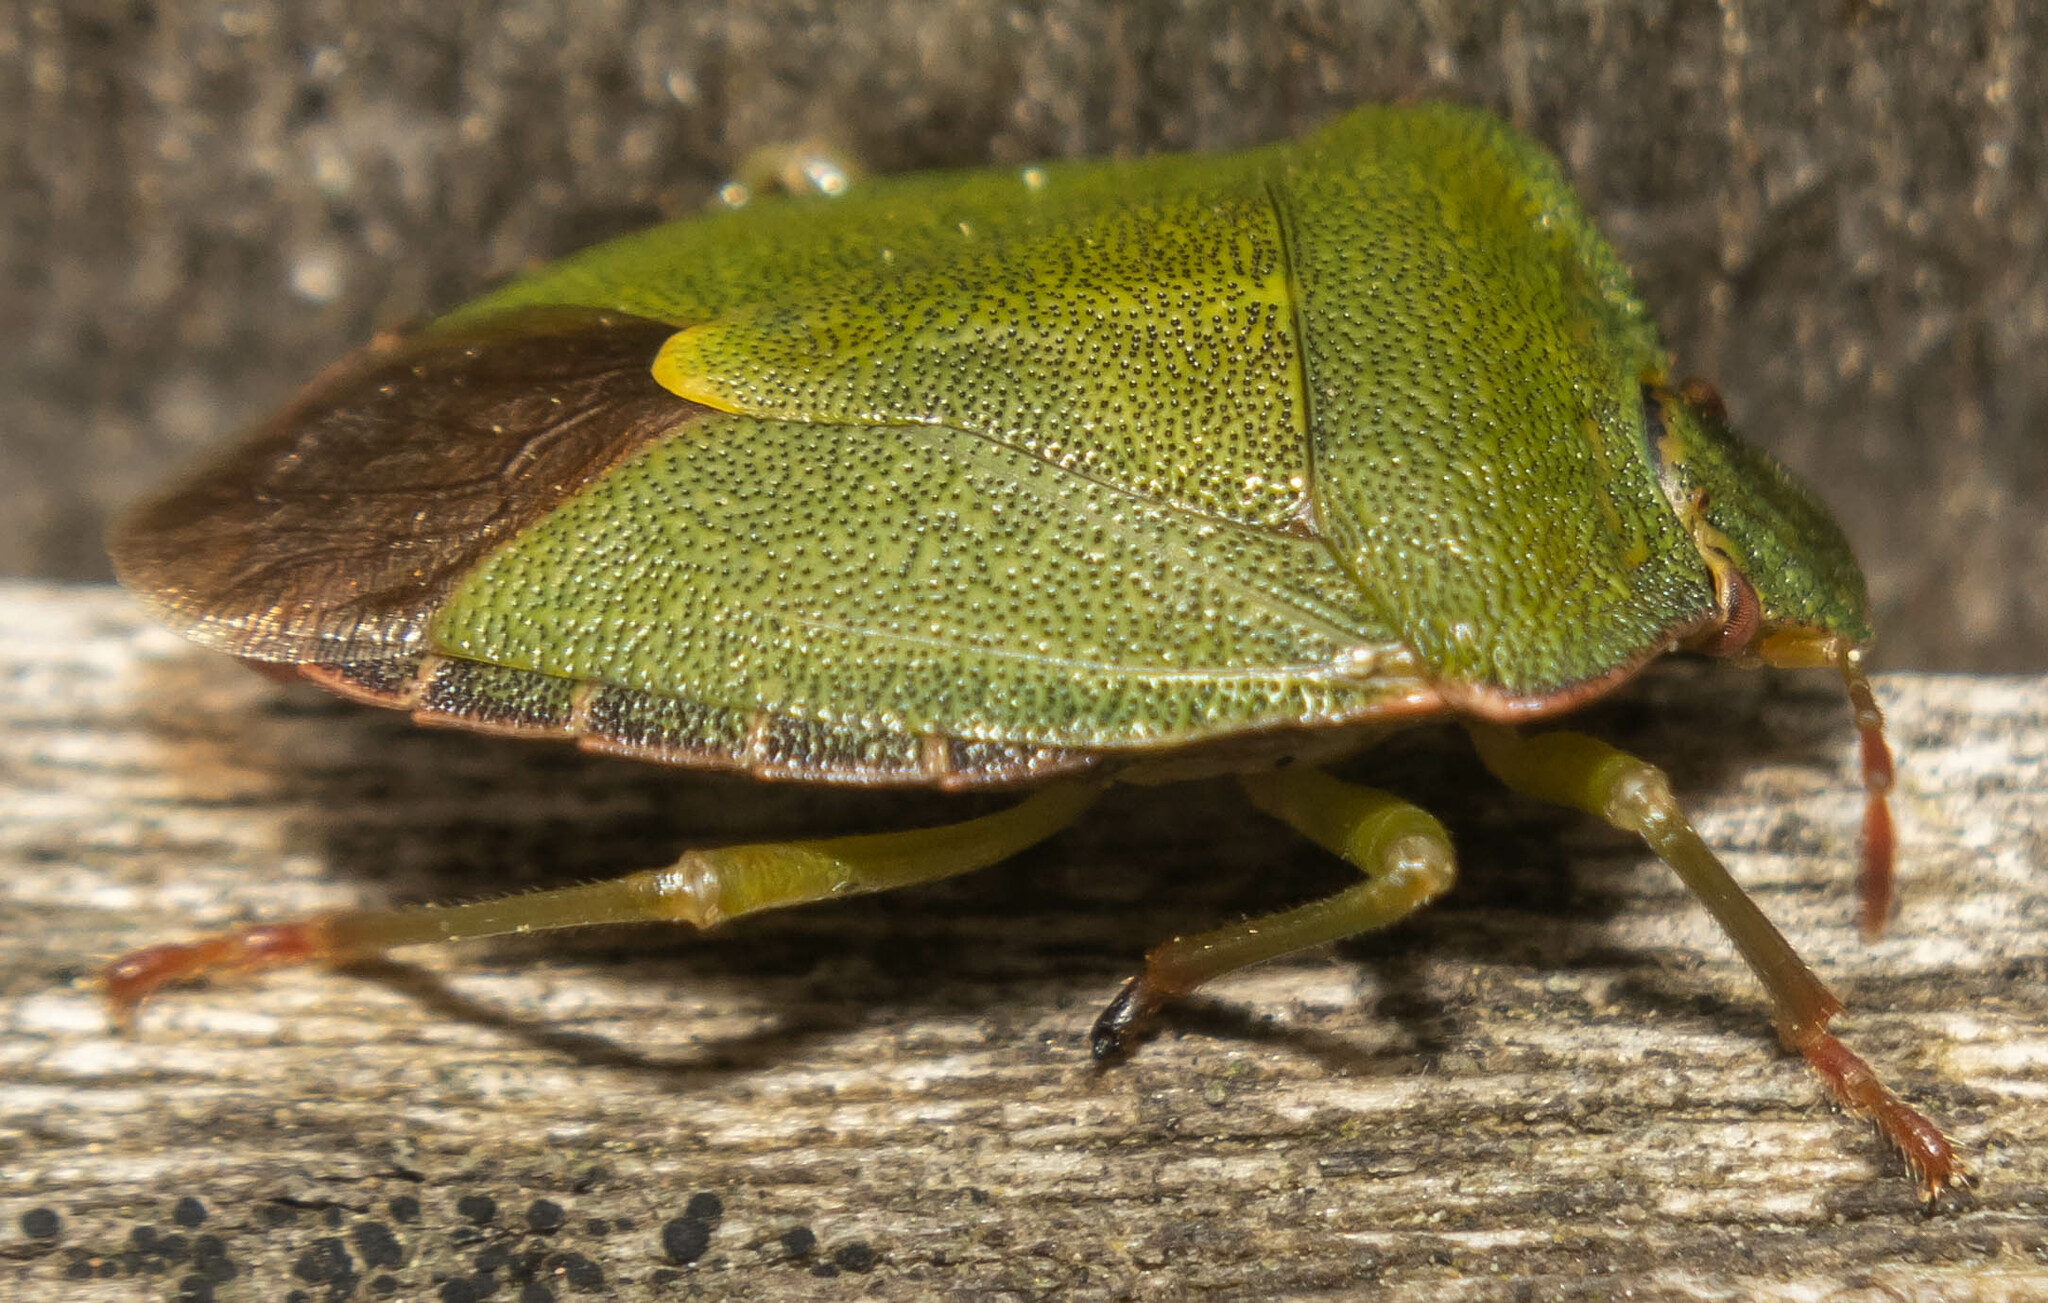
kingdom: Animalia
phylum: Arthropoda
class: Insecta
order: Hemiptera
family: Pentatomidae
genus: Palomena
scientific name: Palomena prasina
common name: Green shieldbug
